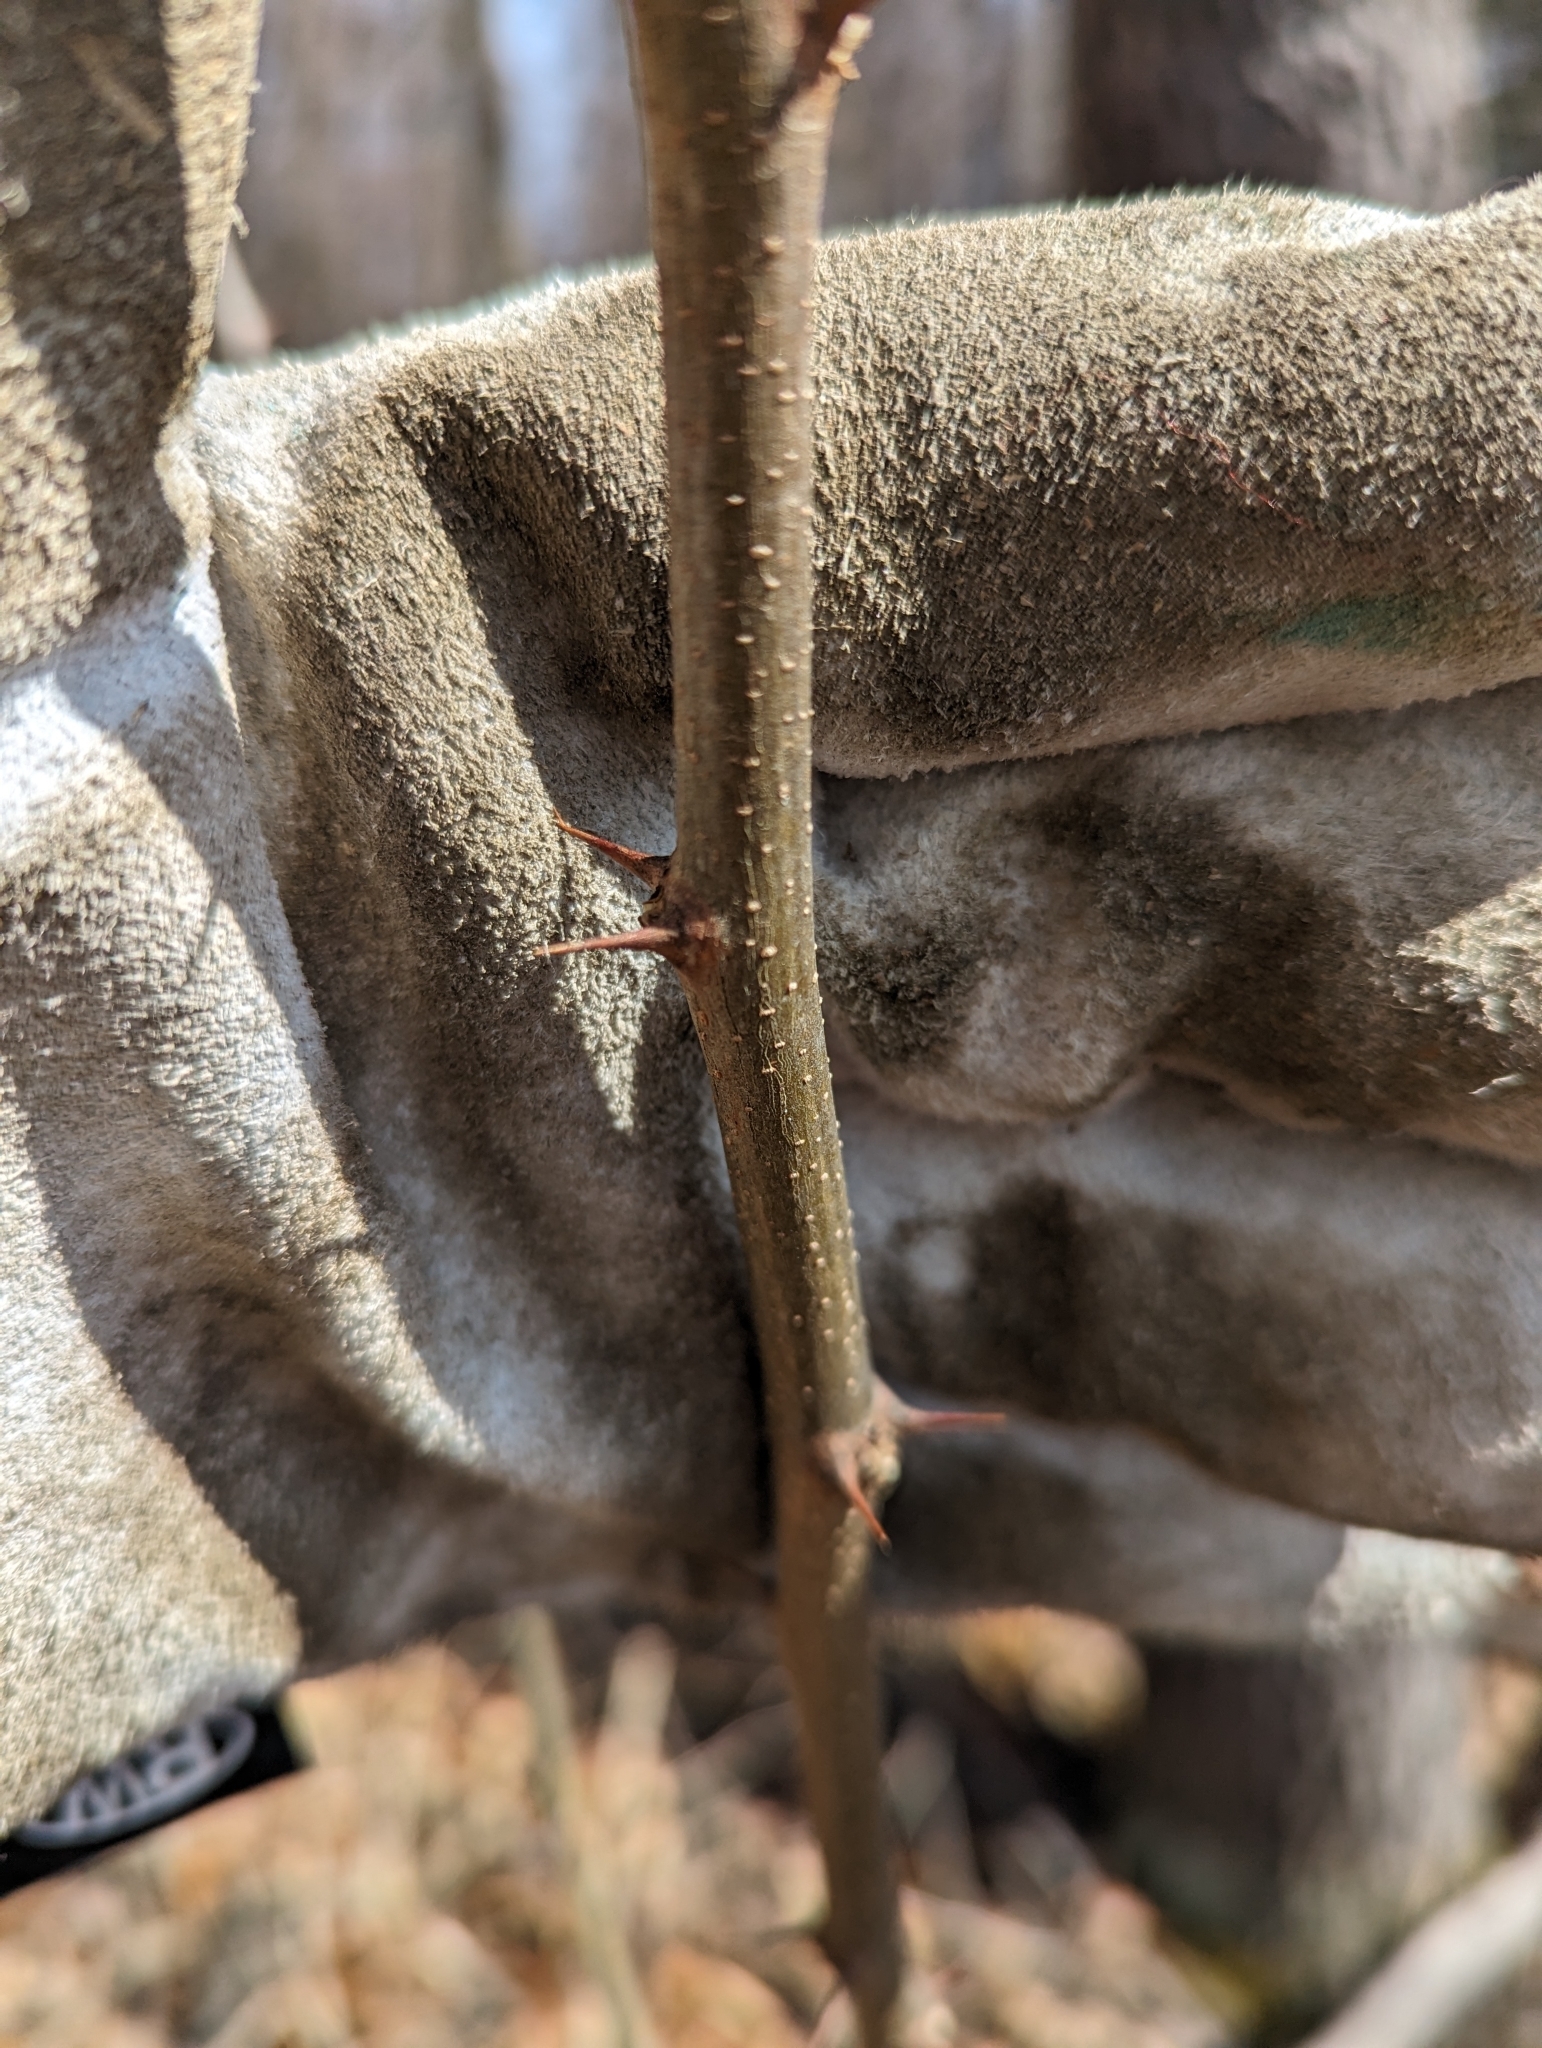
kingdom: Plantae
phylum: Tracheophyta
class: Magnoliopsida
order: Fabales
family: Fabaceae
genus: Robinia
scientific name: Robinia pseudoacacia
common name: Black locust
